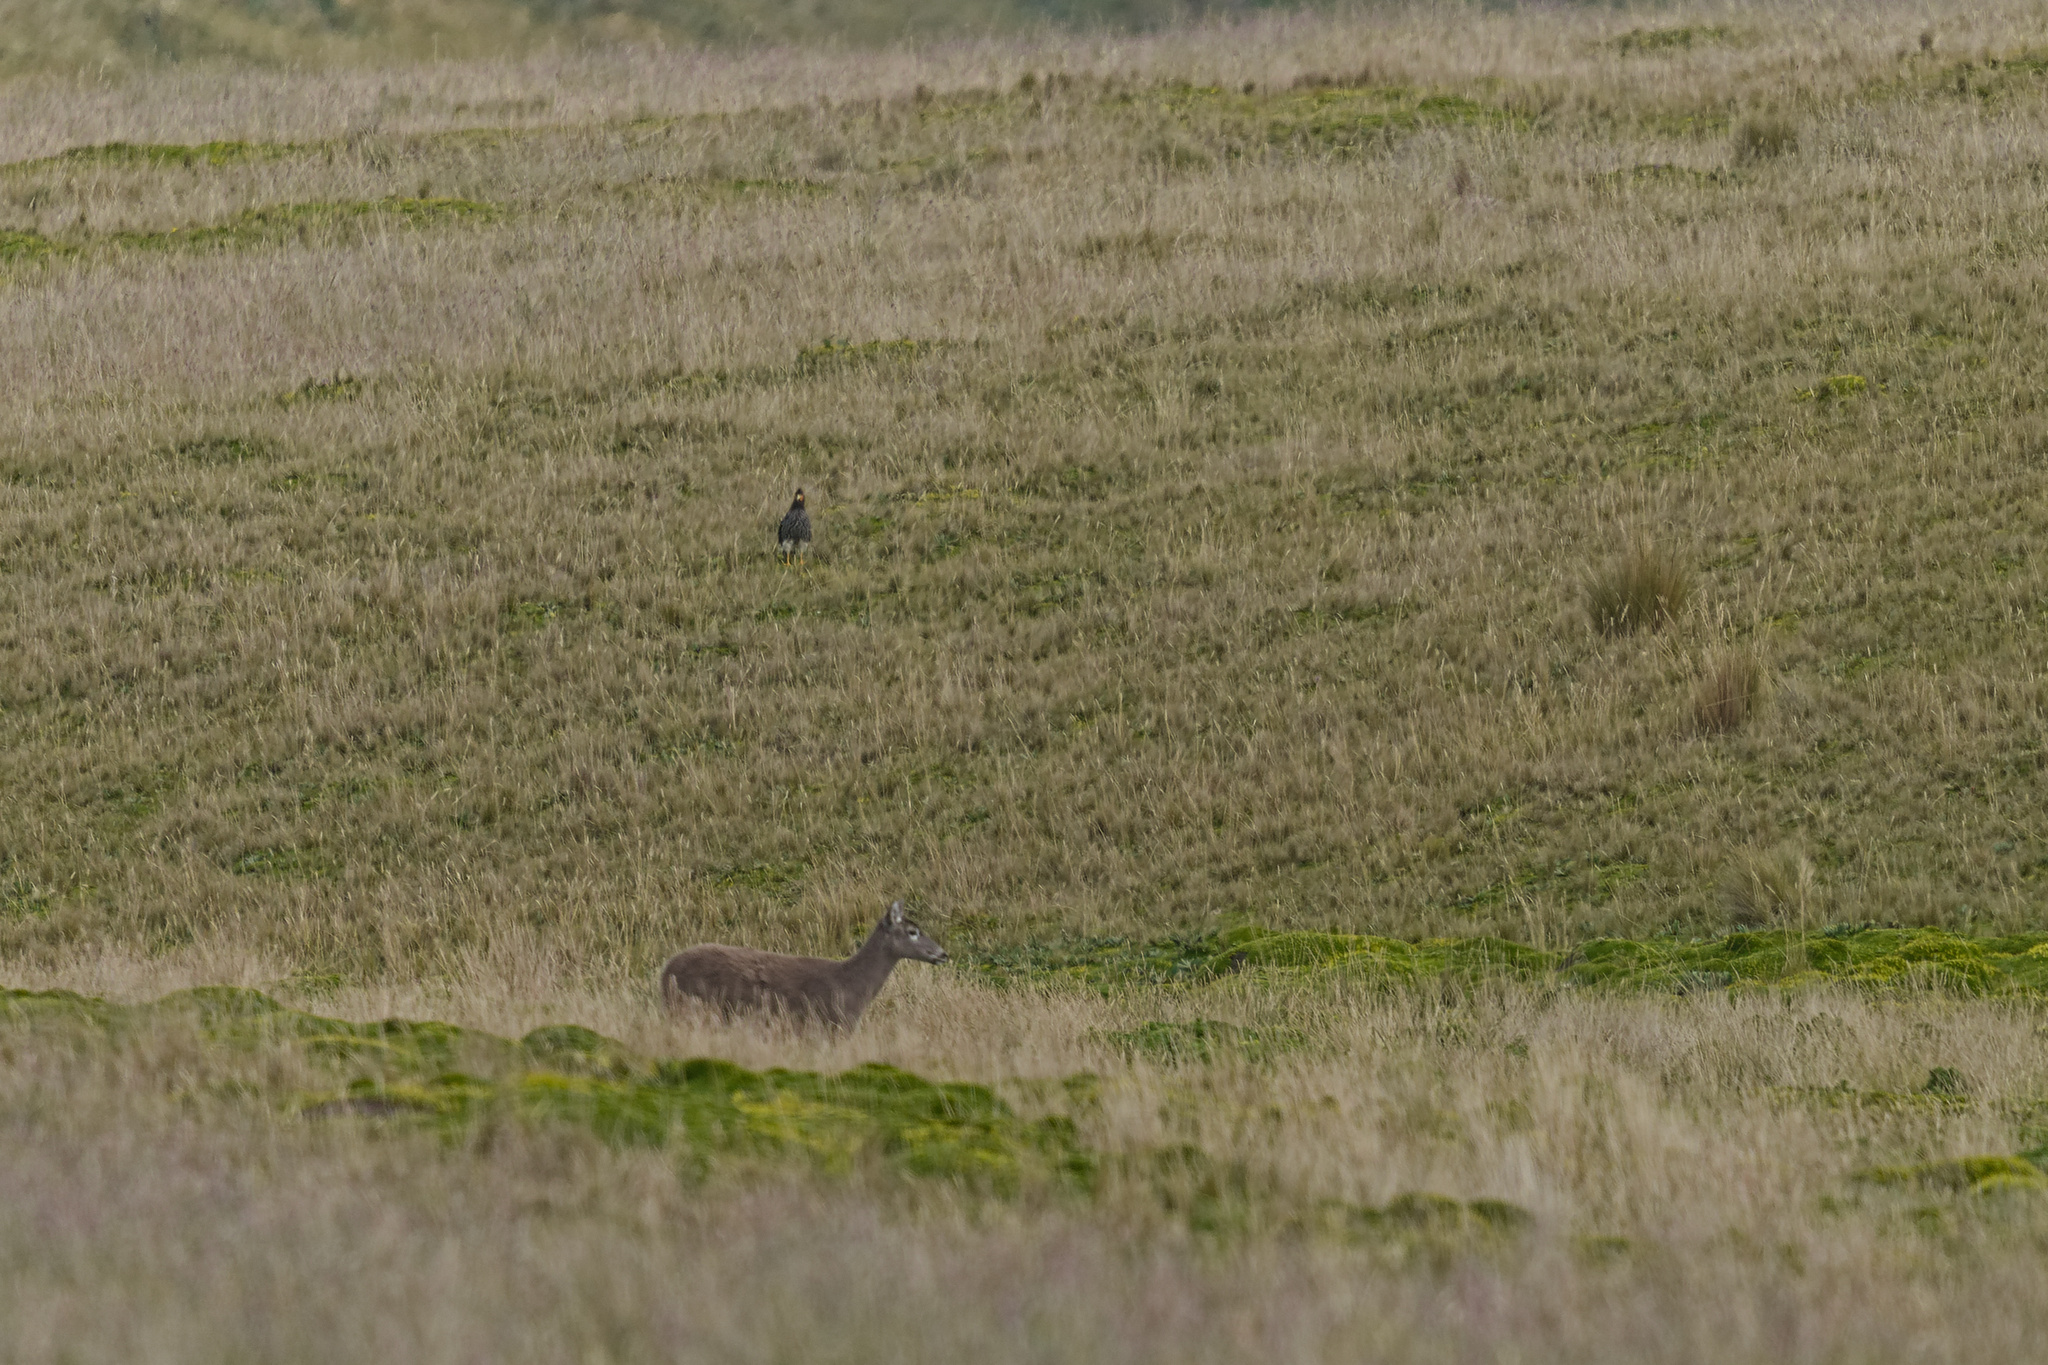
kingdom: Animalia
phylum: Chordata
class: Mammalia
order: Artiodactyla
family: Cervidae
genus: Odocoileus
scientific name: Odocoileus virginianus
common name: White-tailed deer
